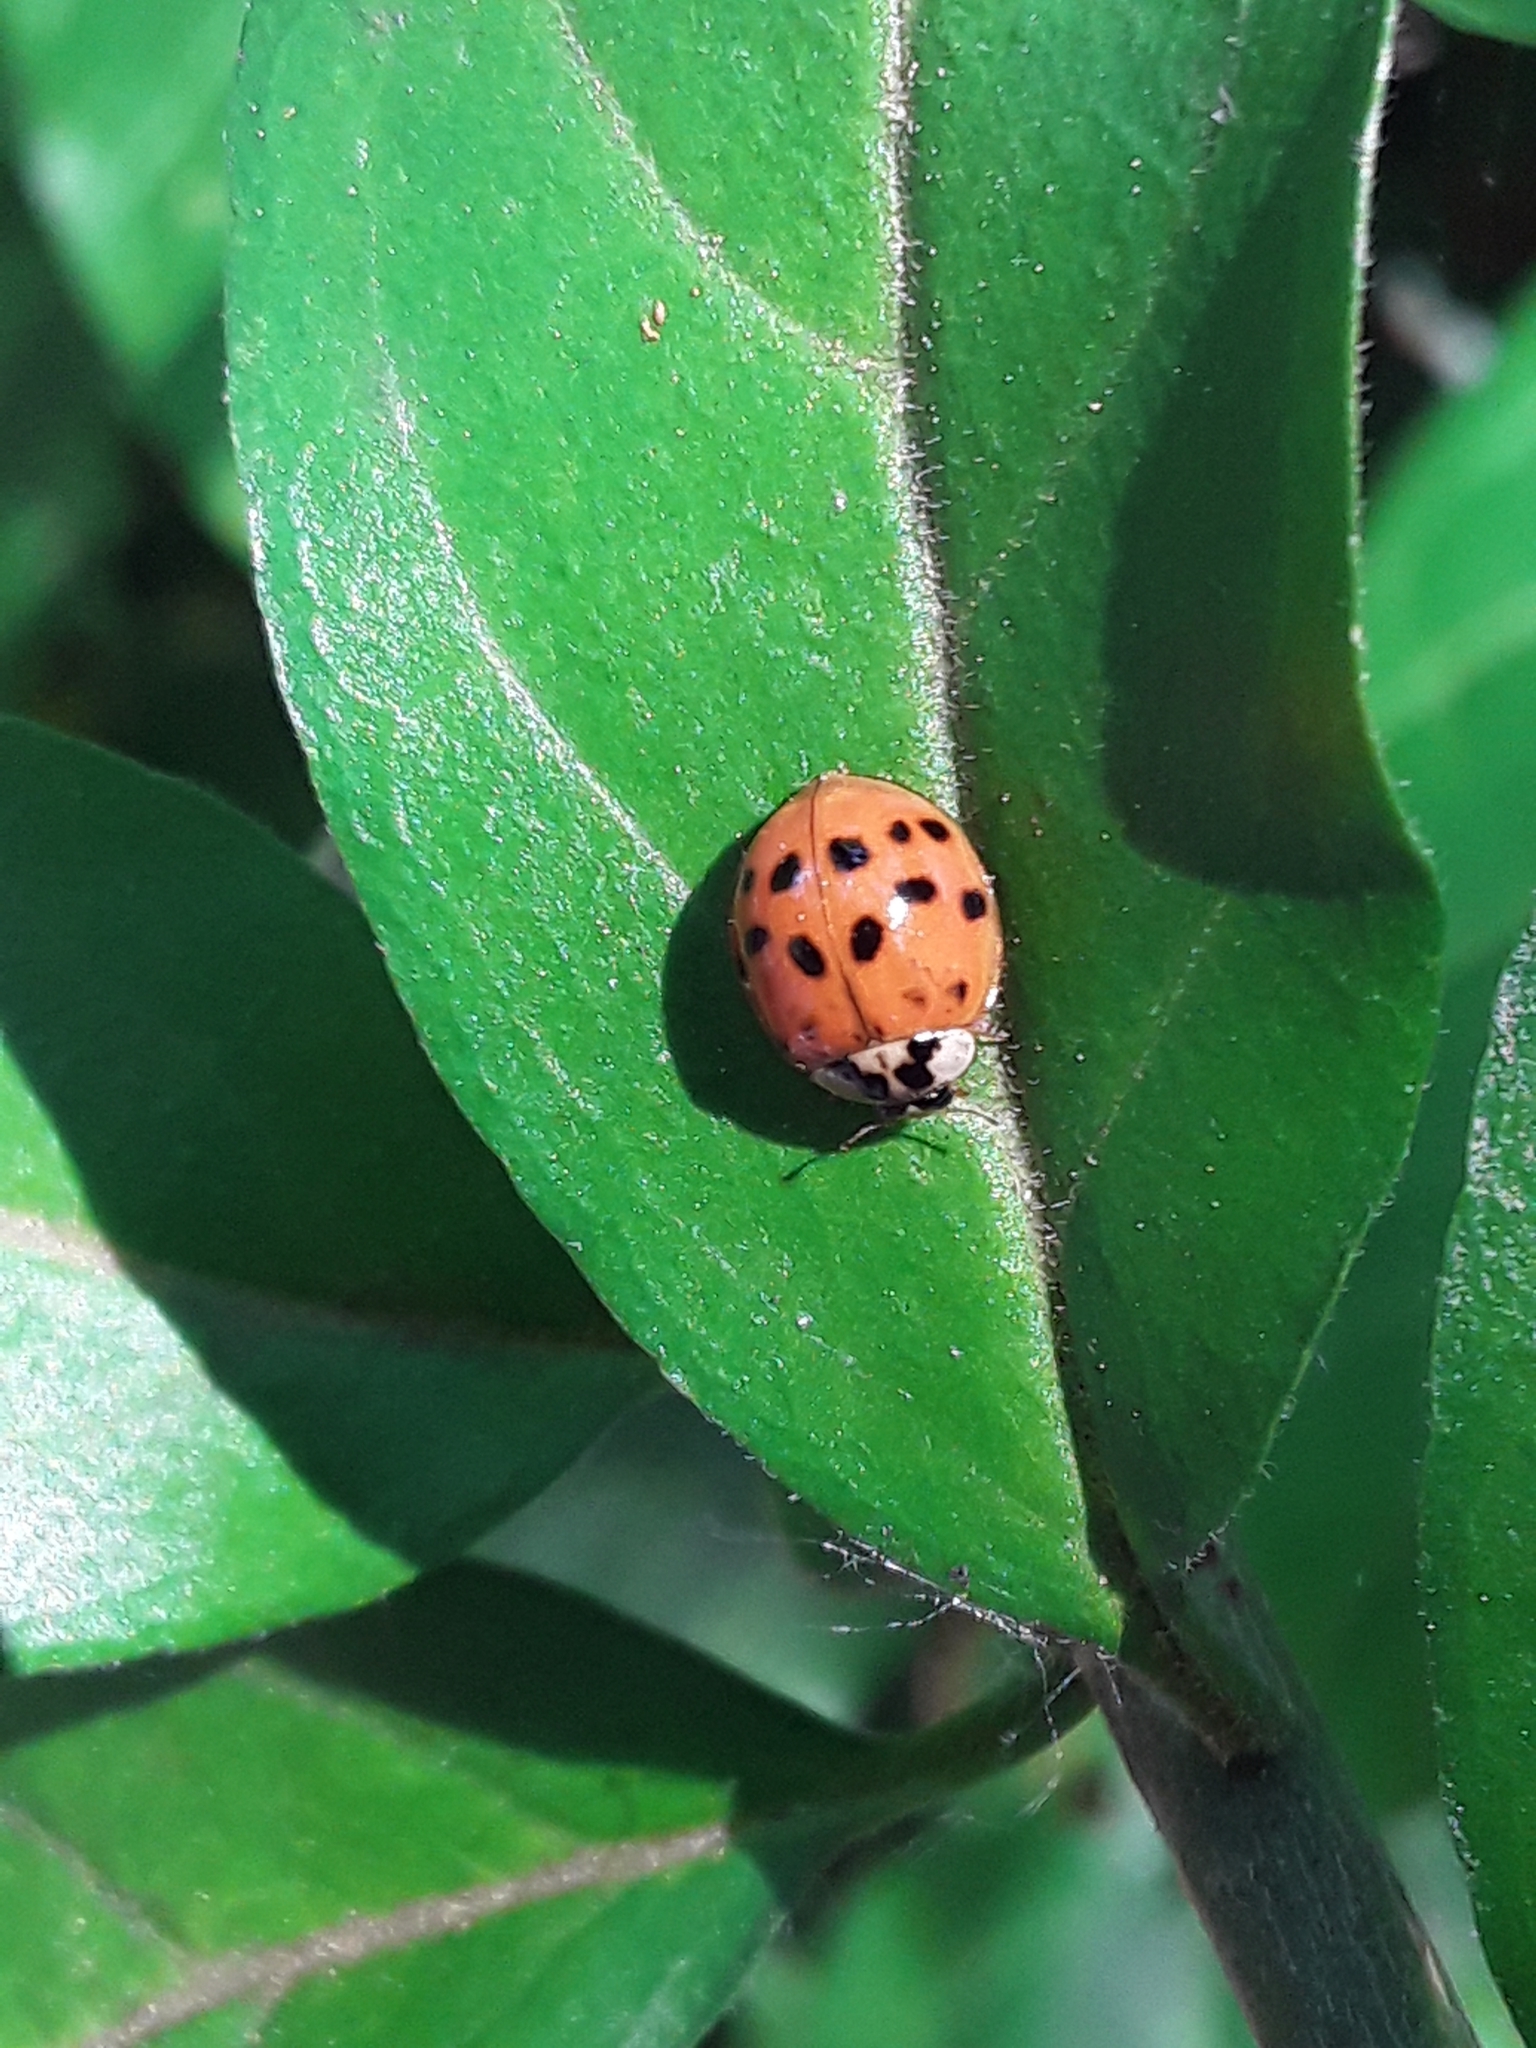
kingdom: Animalia
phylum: Arthropoda
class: Insecta
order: Coleoptera
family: Coccinellidae
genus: Harmonia
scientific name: Harmonia axyridis
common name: Harlequin ladybird
